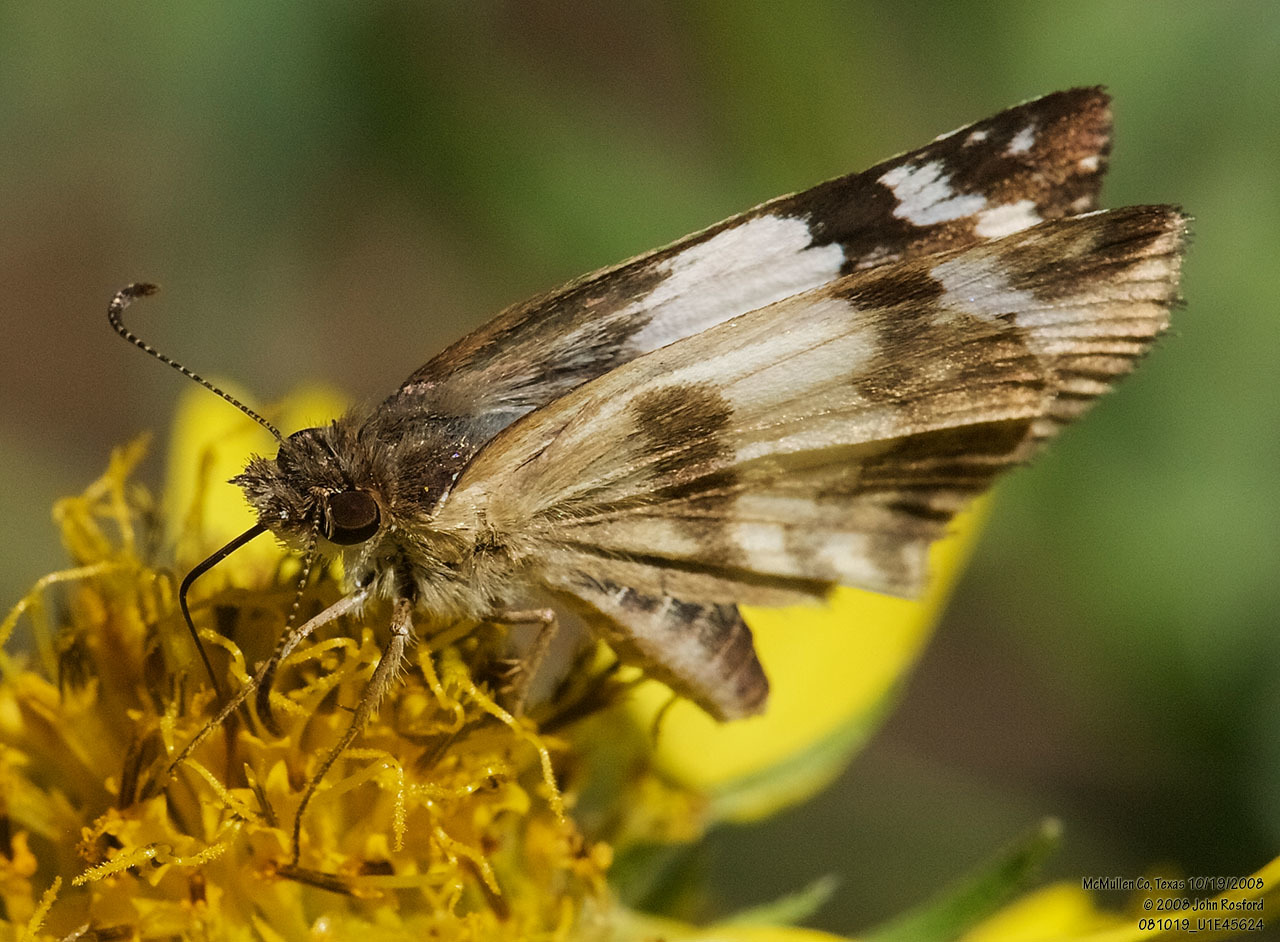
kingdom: Animalia
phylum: Arthropoda
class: Insecta
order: Lepidoptera
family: Hesperiidae
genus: Heliopetes
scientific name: Heliopetes sublinea
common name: East-mexican white-skipper
